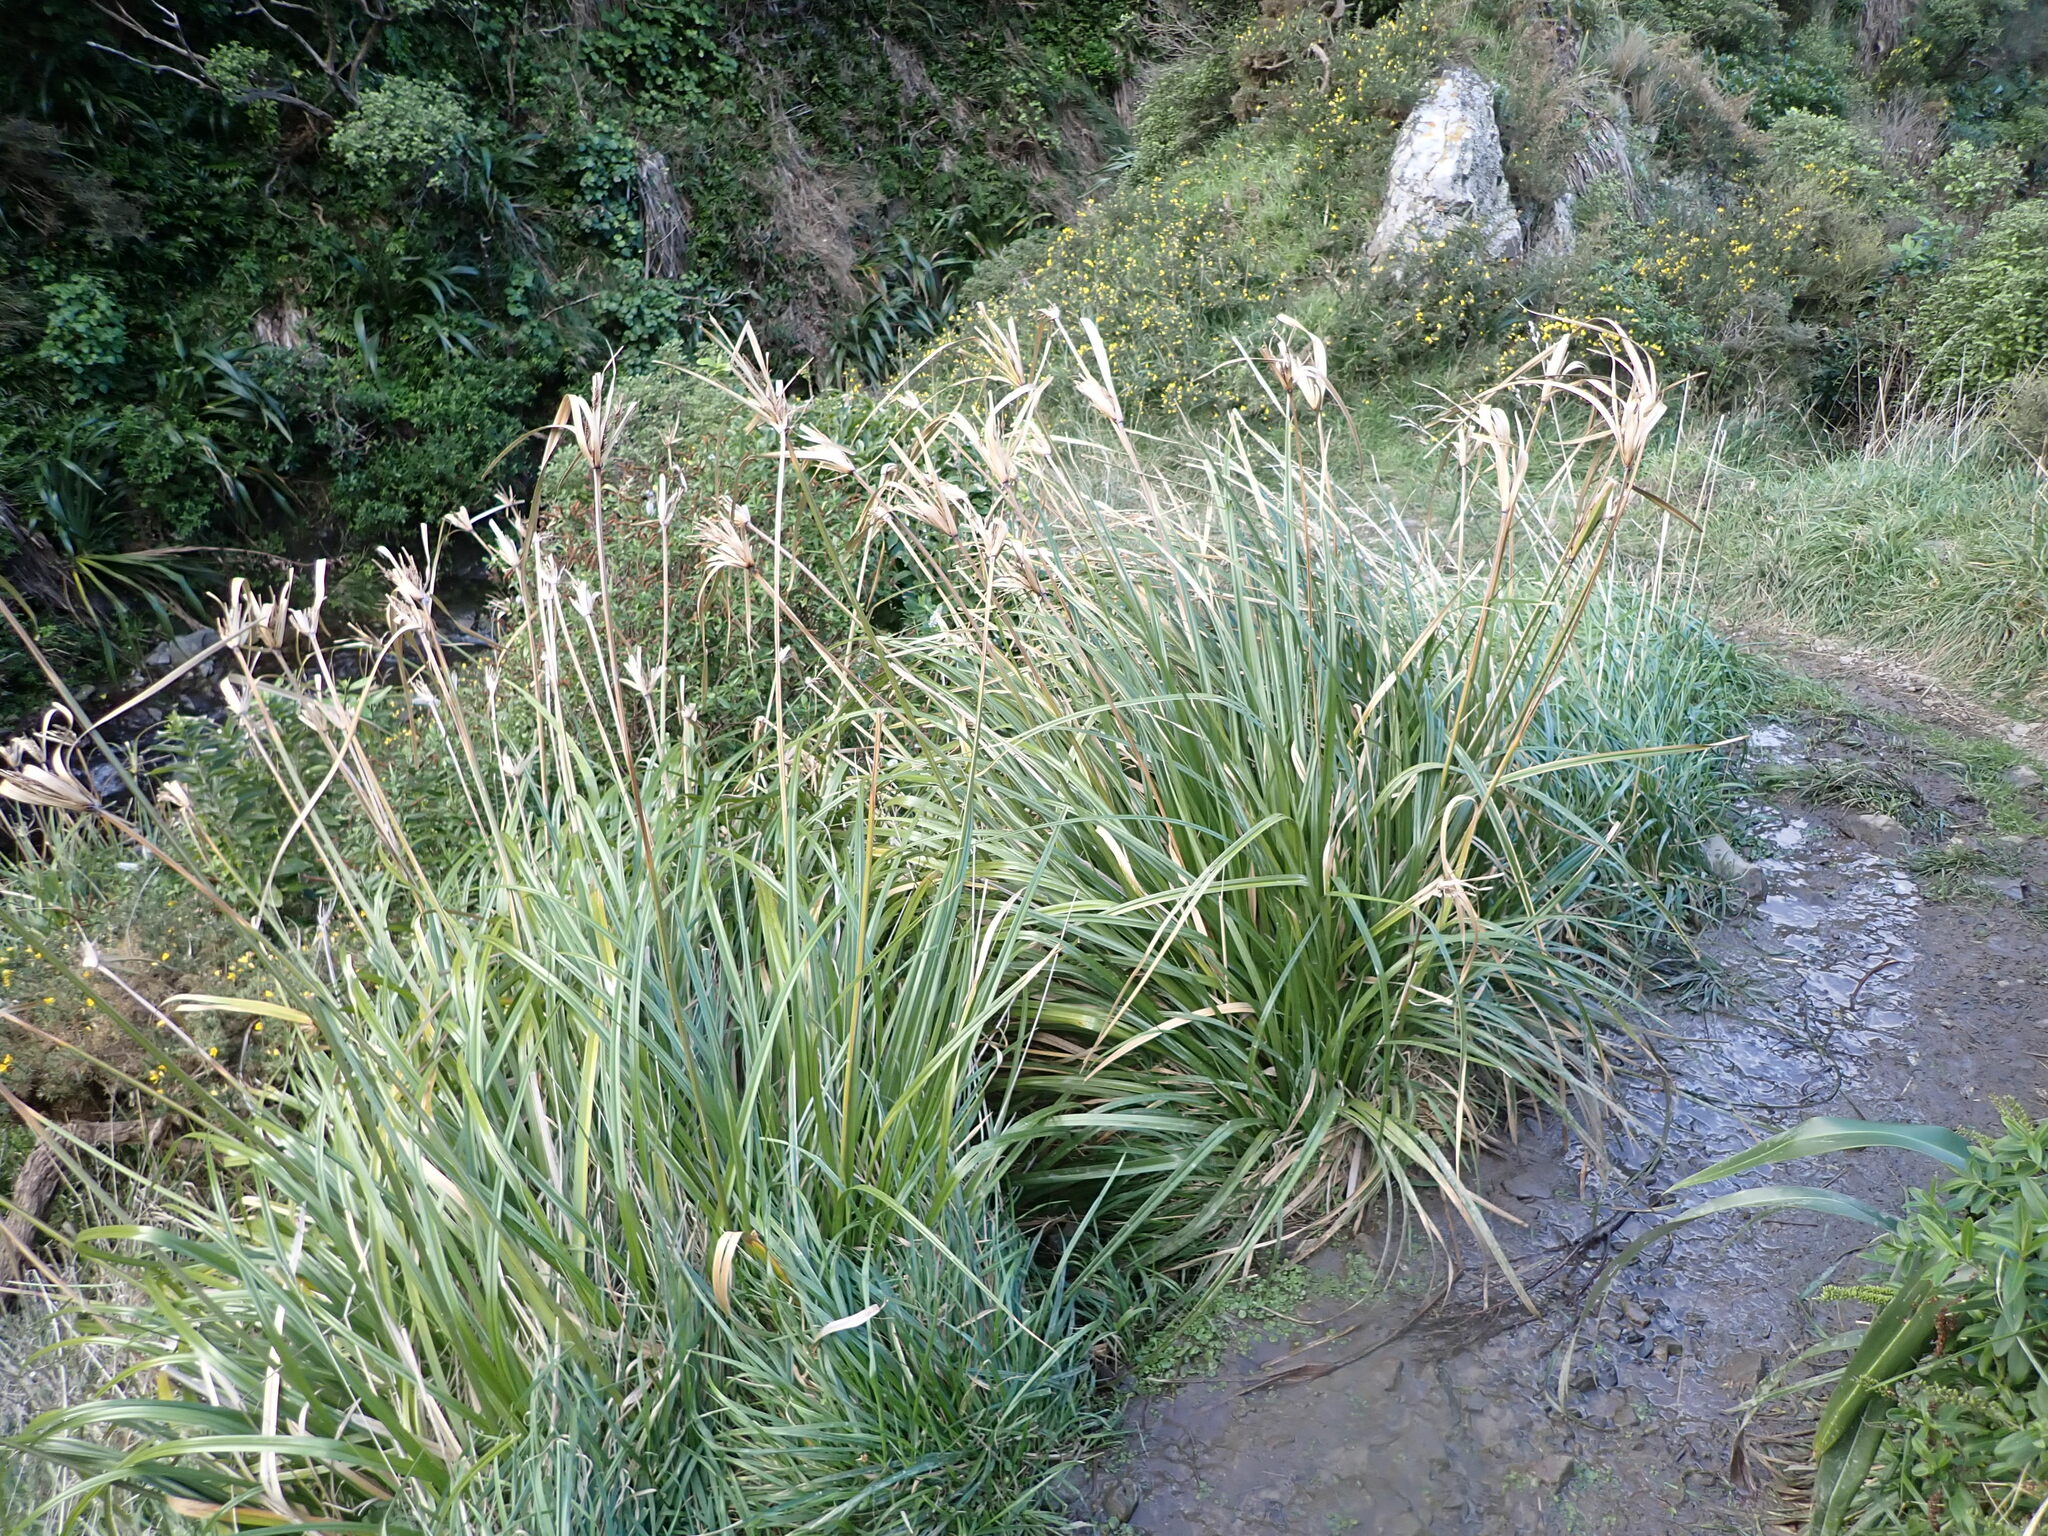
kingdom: Plantae
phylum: Tracheophyta
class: Liliopsida
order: Poales
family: Cyperaceae
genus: Cyperus
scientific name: Cyperus ustulatus
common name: Giant umbrella-sedge
